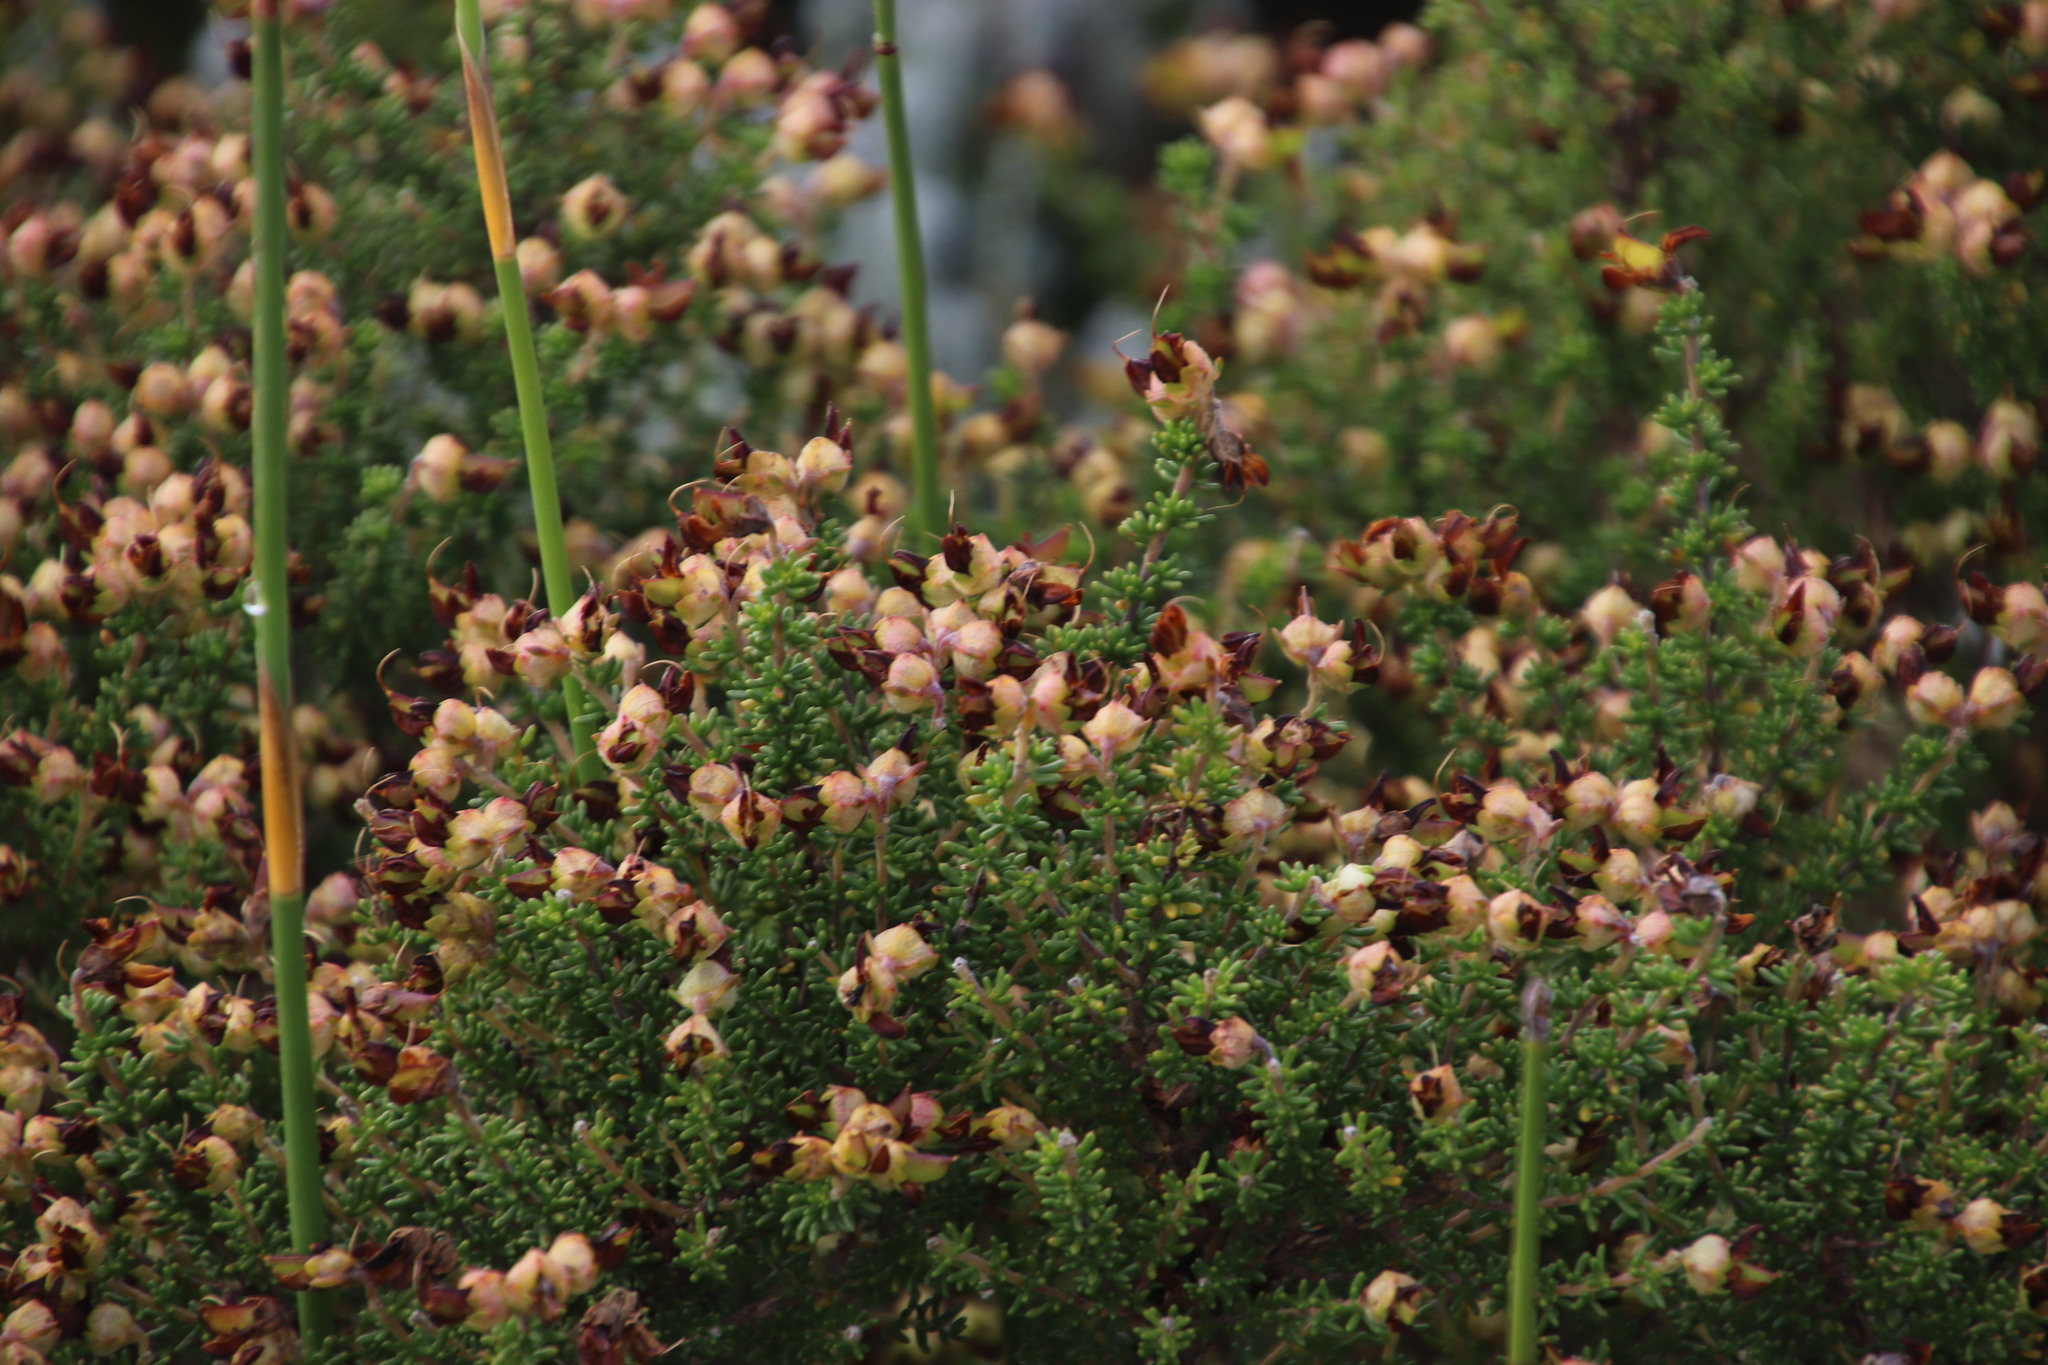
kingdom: Plantae
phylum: Tracheophyta
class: Magnoliopsida
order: Fabales
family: Fabaceae
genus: Aspalathus
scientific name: Aspalathus carnosa
